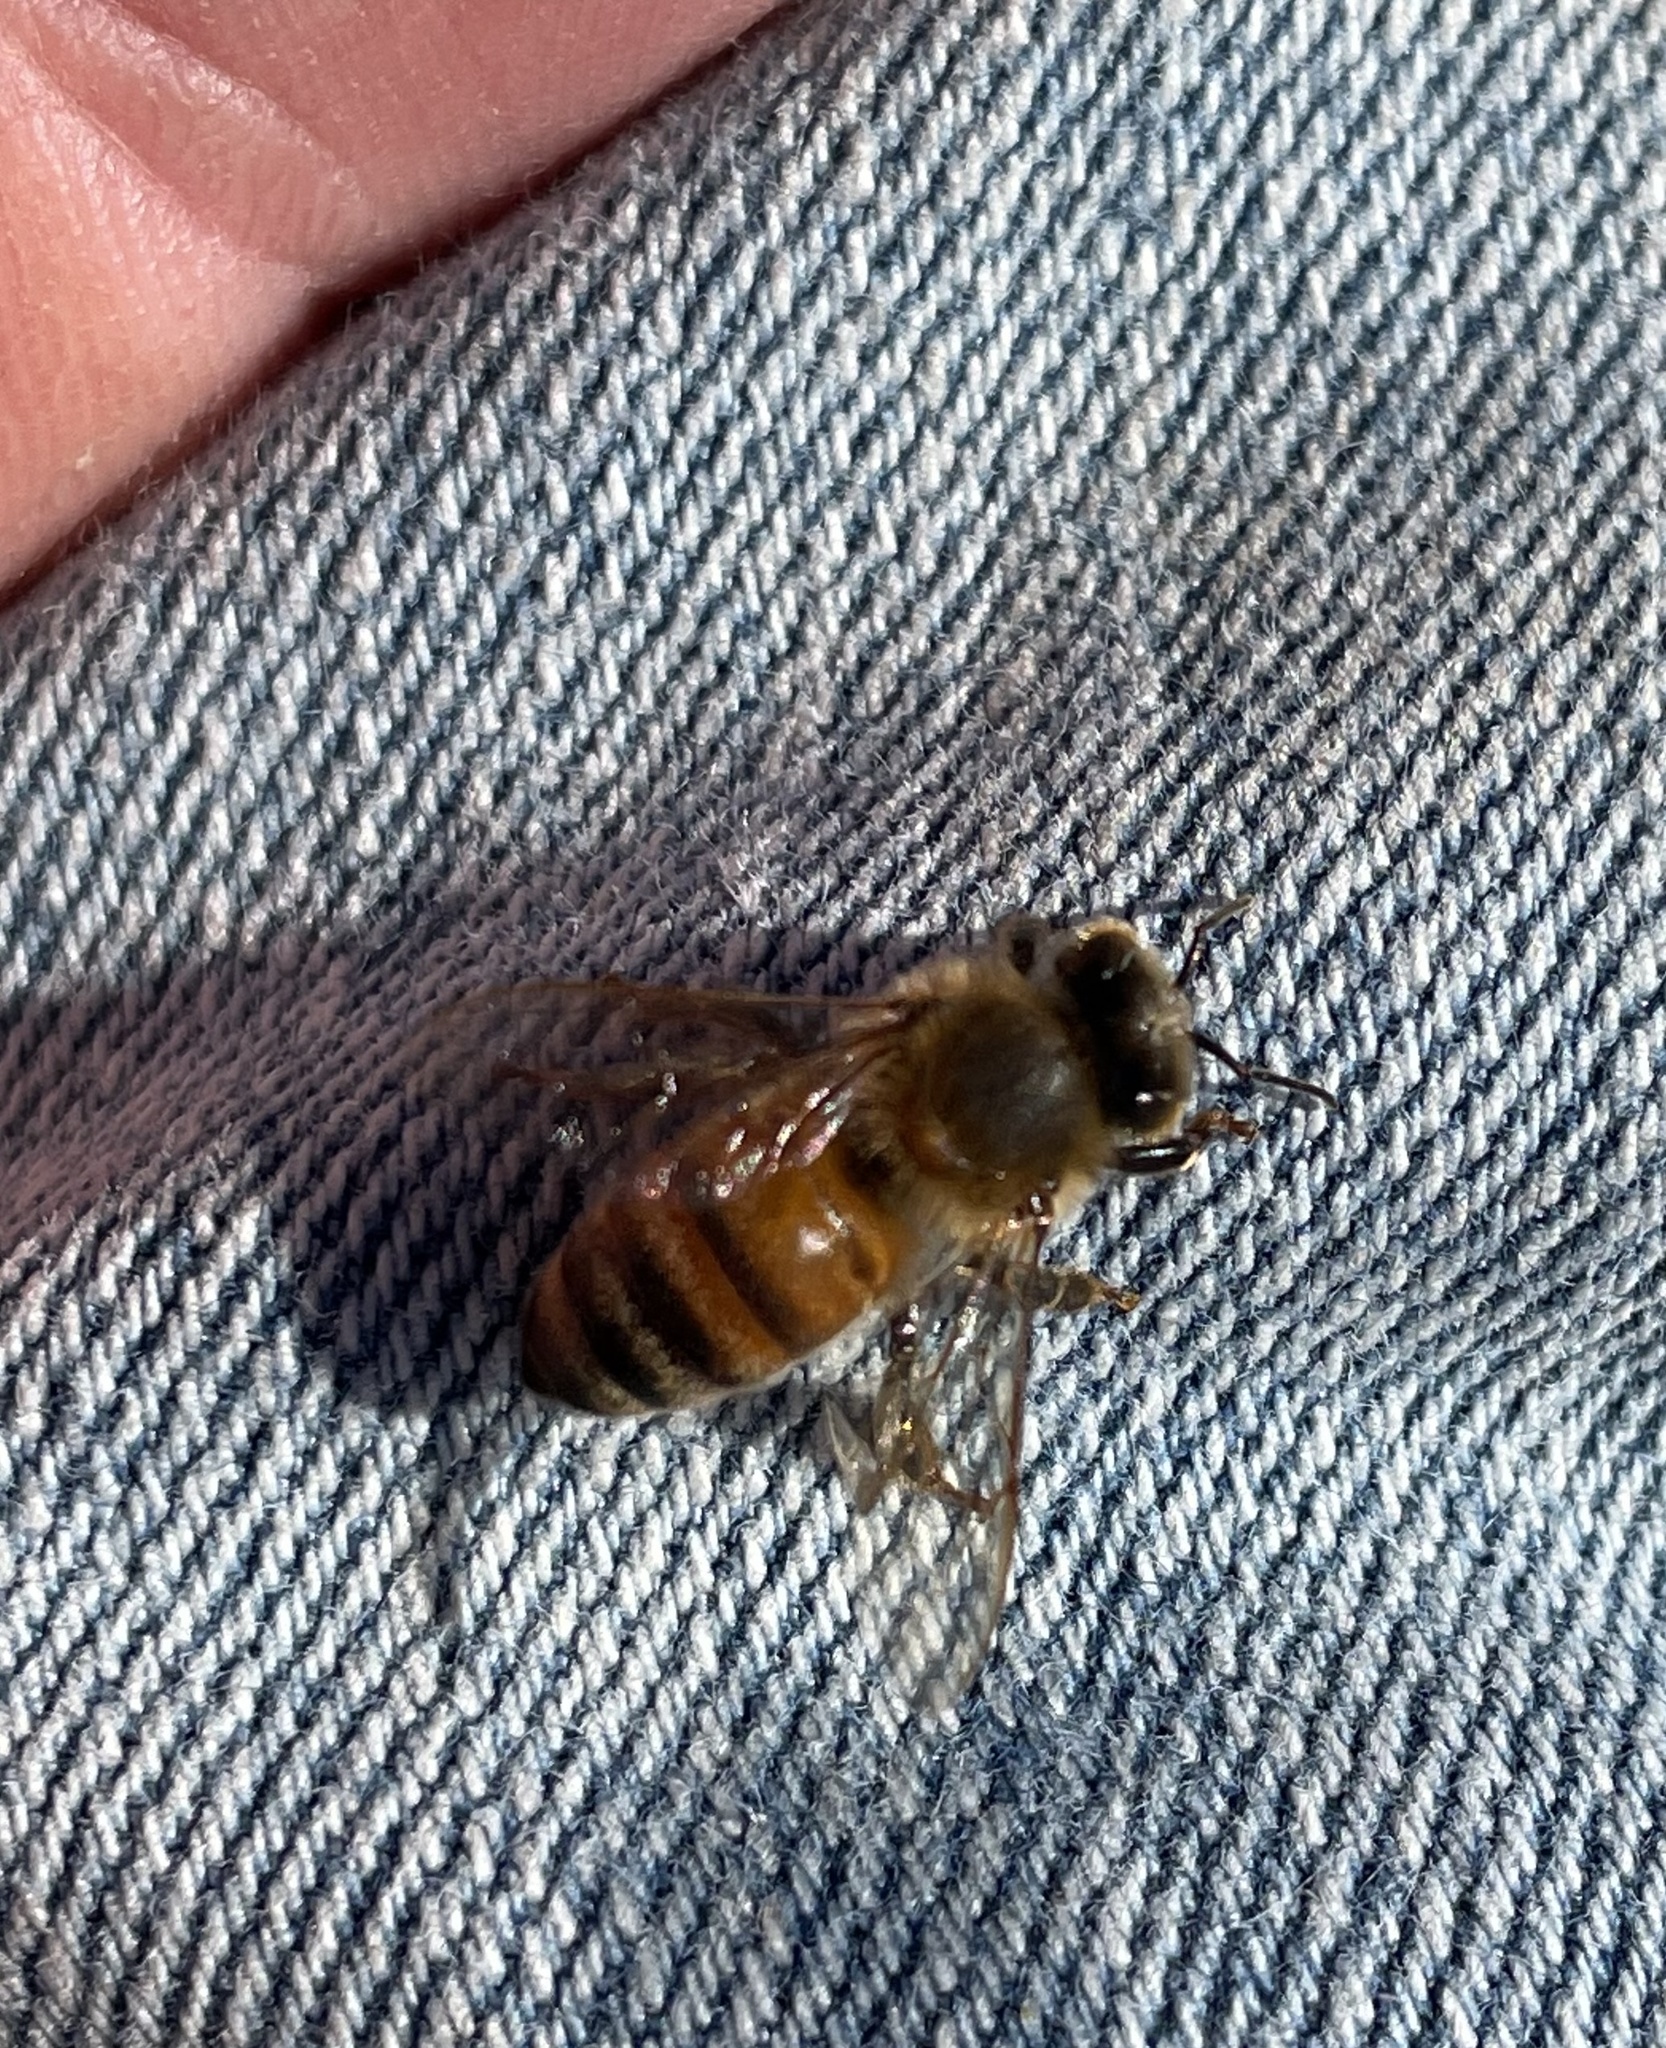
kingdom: Animalia
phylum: Arthropoda
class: Insecta
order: Hymenoptera
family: Apidae
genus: Apis
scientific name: Apis mellifera
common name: Honey bee
